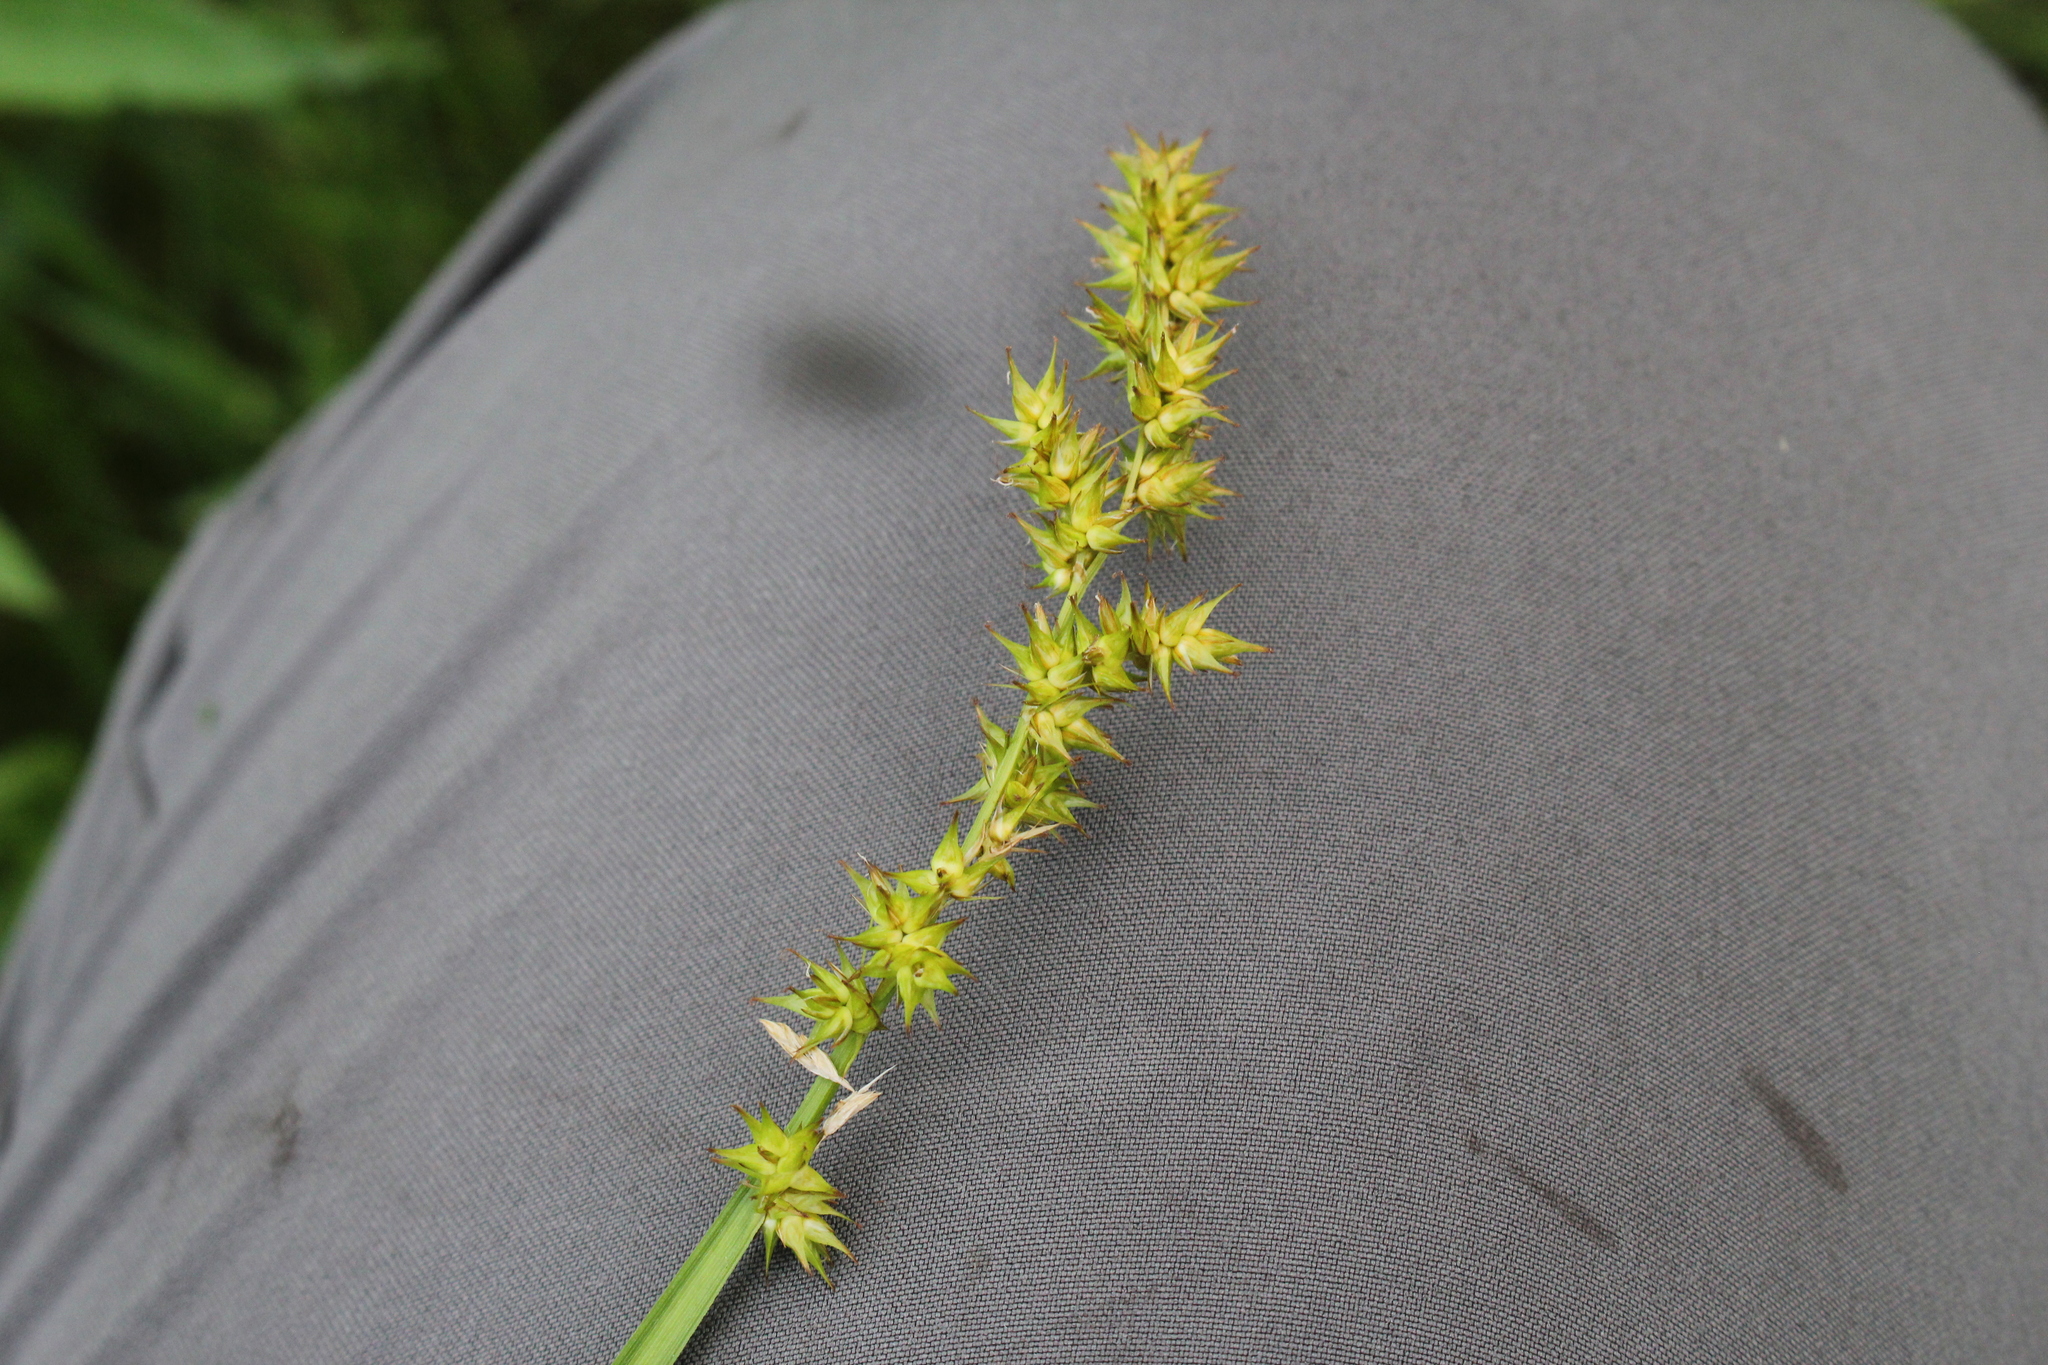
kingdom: Plantae
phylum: Tracheophyta
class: Liliopsida
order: Poales
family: Cyperaceae
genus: Carex
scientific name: Carex stipata
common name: Awl-fruited sedge
